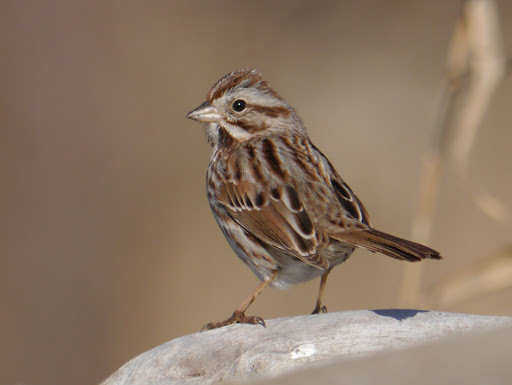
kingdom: Animalia
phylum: Chordata
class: Aves
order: Passeriformes
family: Passerellidae
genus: Melospiza
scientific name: Melospiza melodia
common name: Song sparrow
